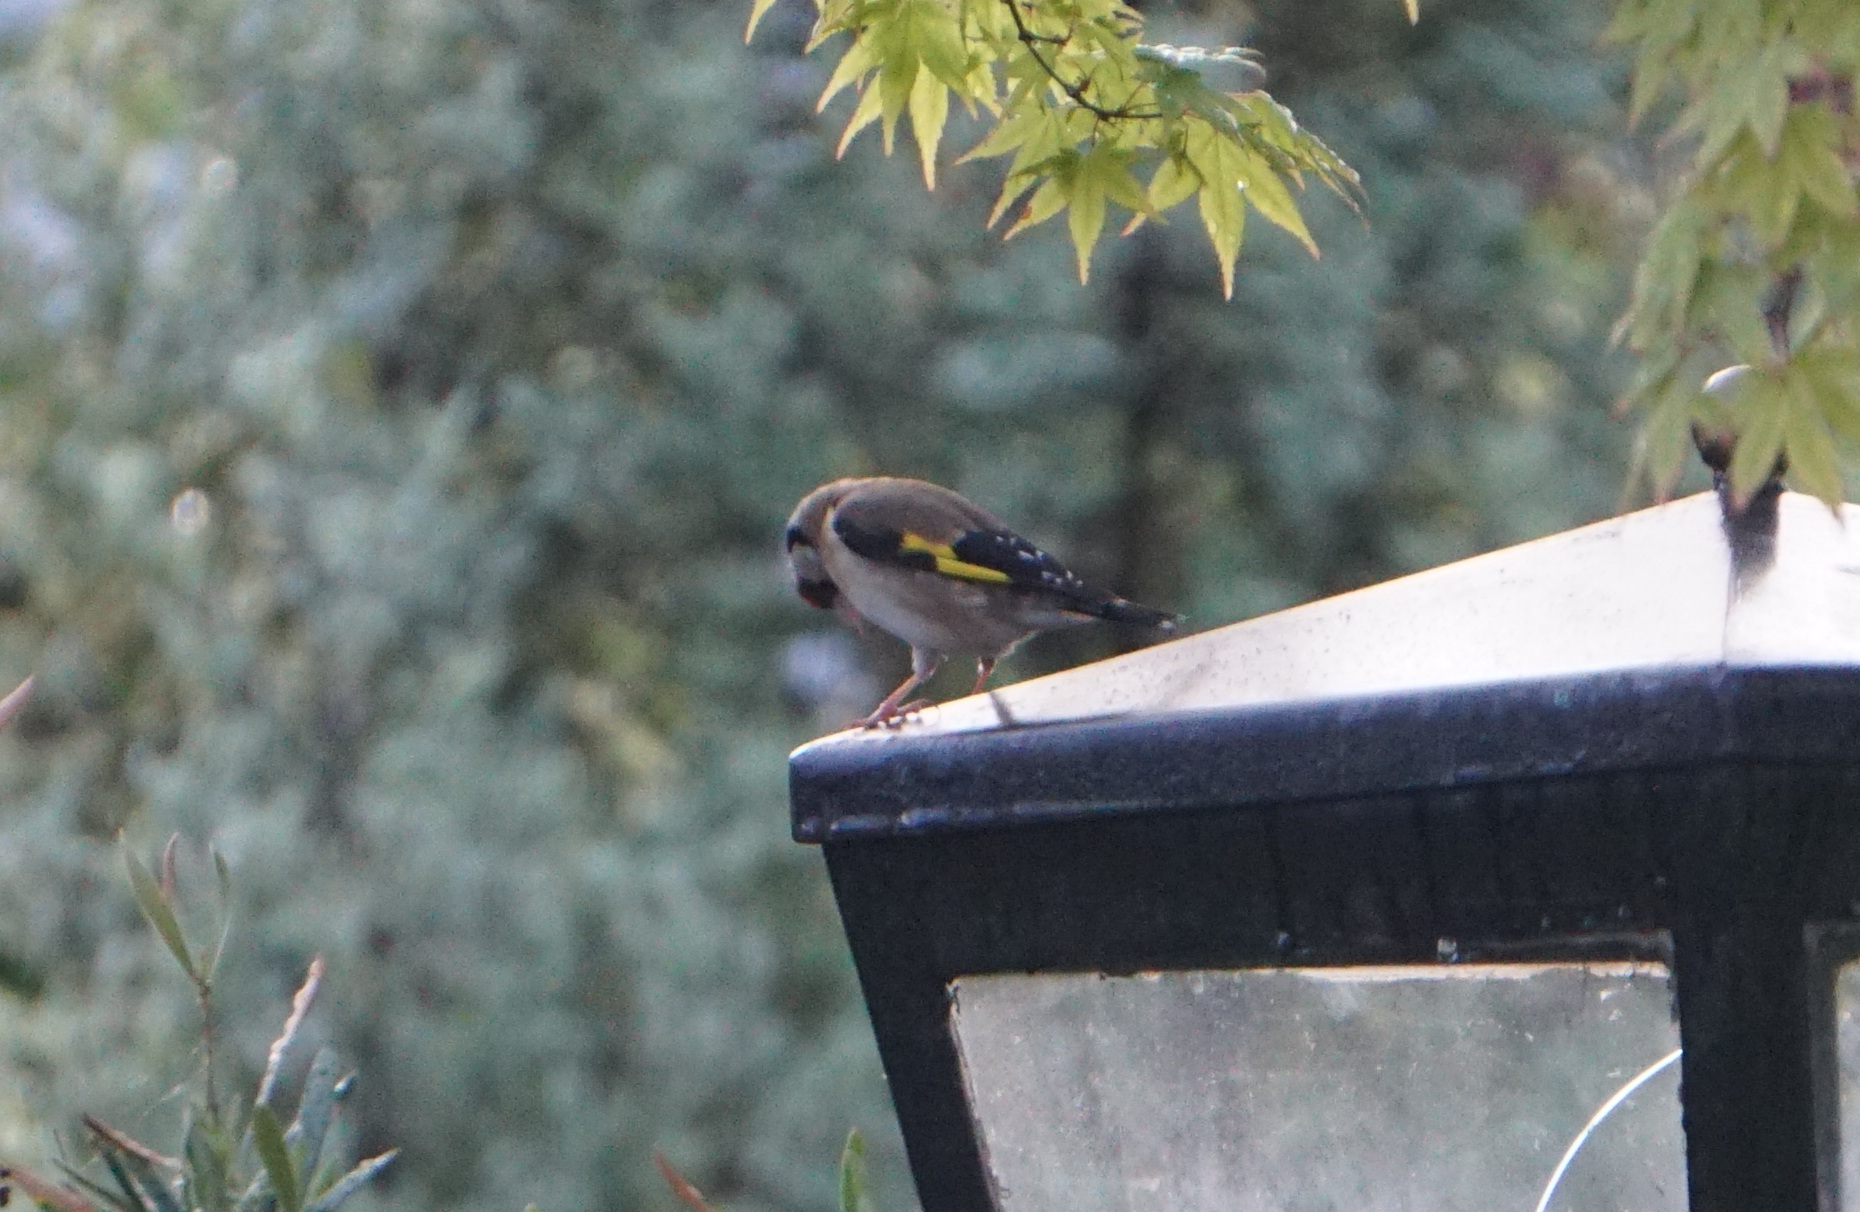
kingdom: Animalia
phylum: Chordata
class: Aves
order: Passeriformes
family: Fringillidae
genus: Carduelis
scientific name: Carduelis carduelis
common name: European goldfinch
